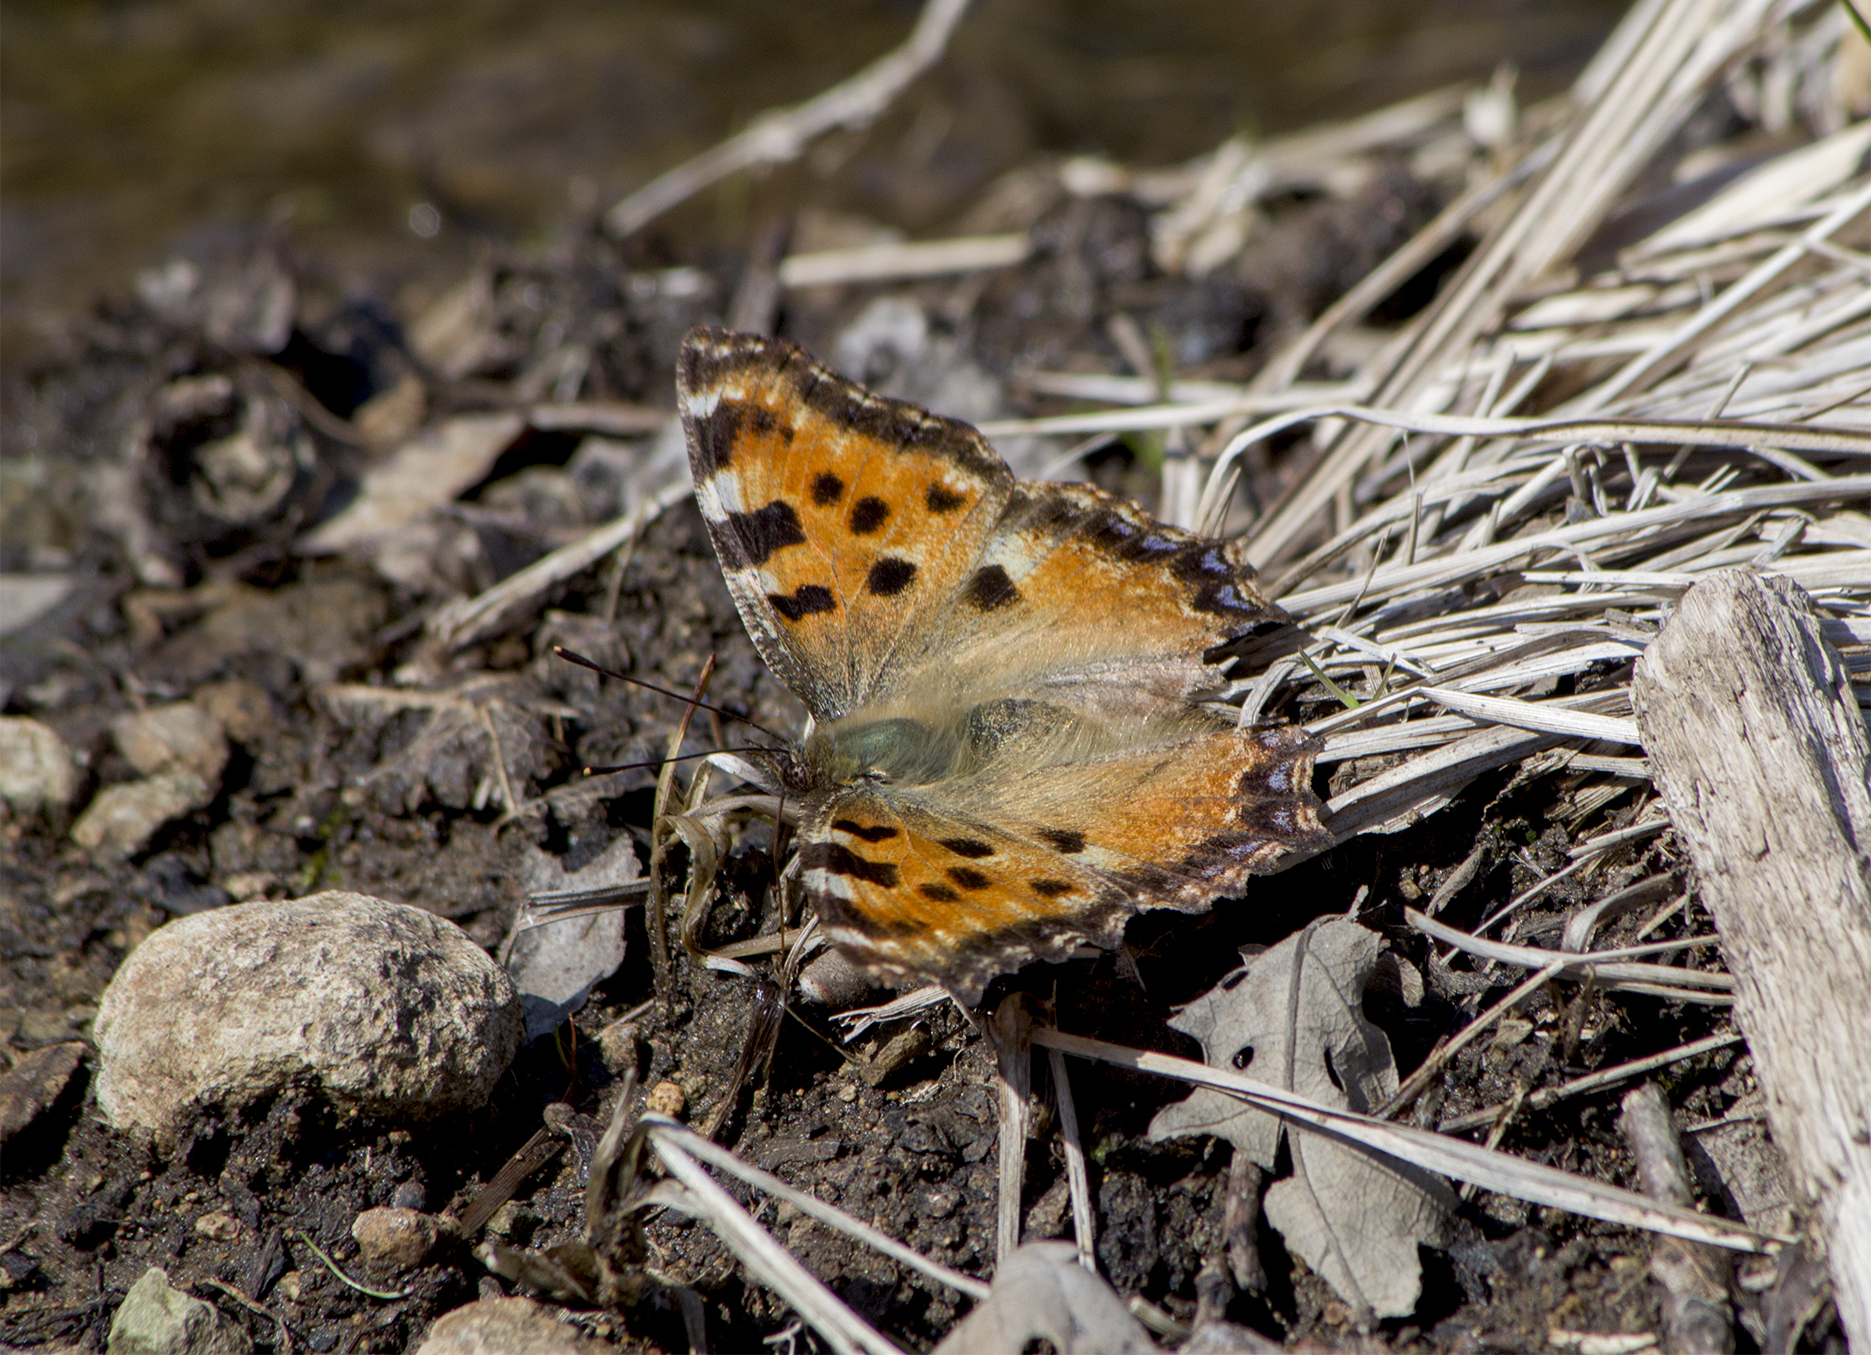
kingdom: Animalia
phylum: Arthropoda
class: Insecta
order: Lepidoptera
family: Nymphalidae
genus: Nymphalis
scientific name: Nymphalis polychloros
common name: Large tortoiseshell
